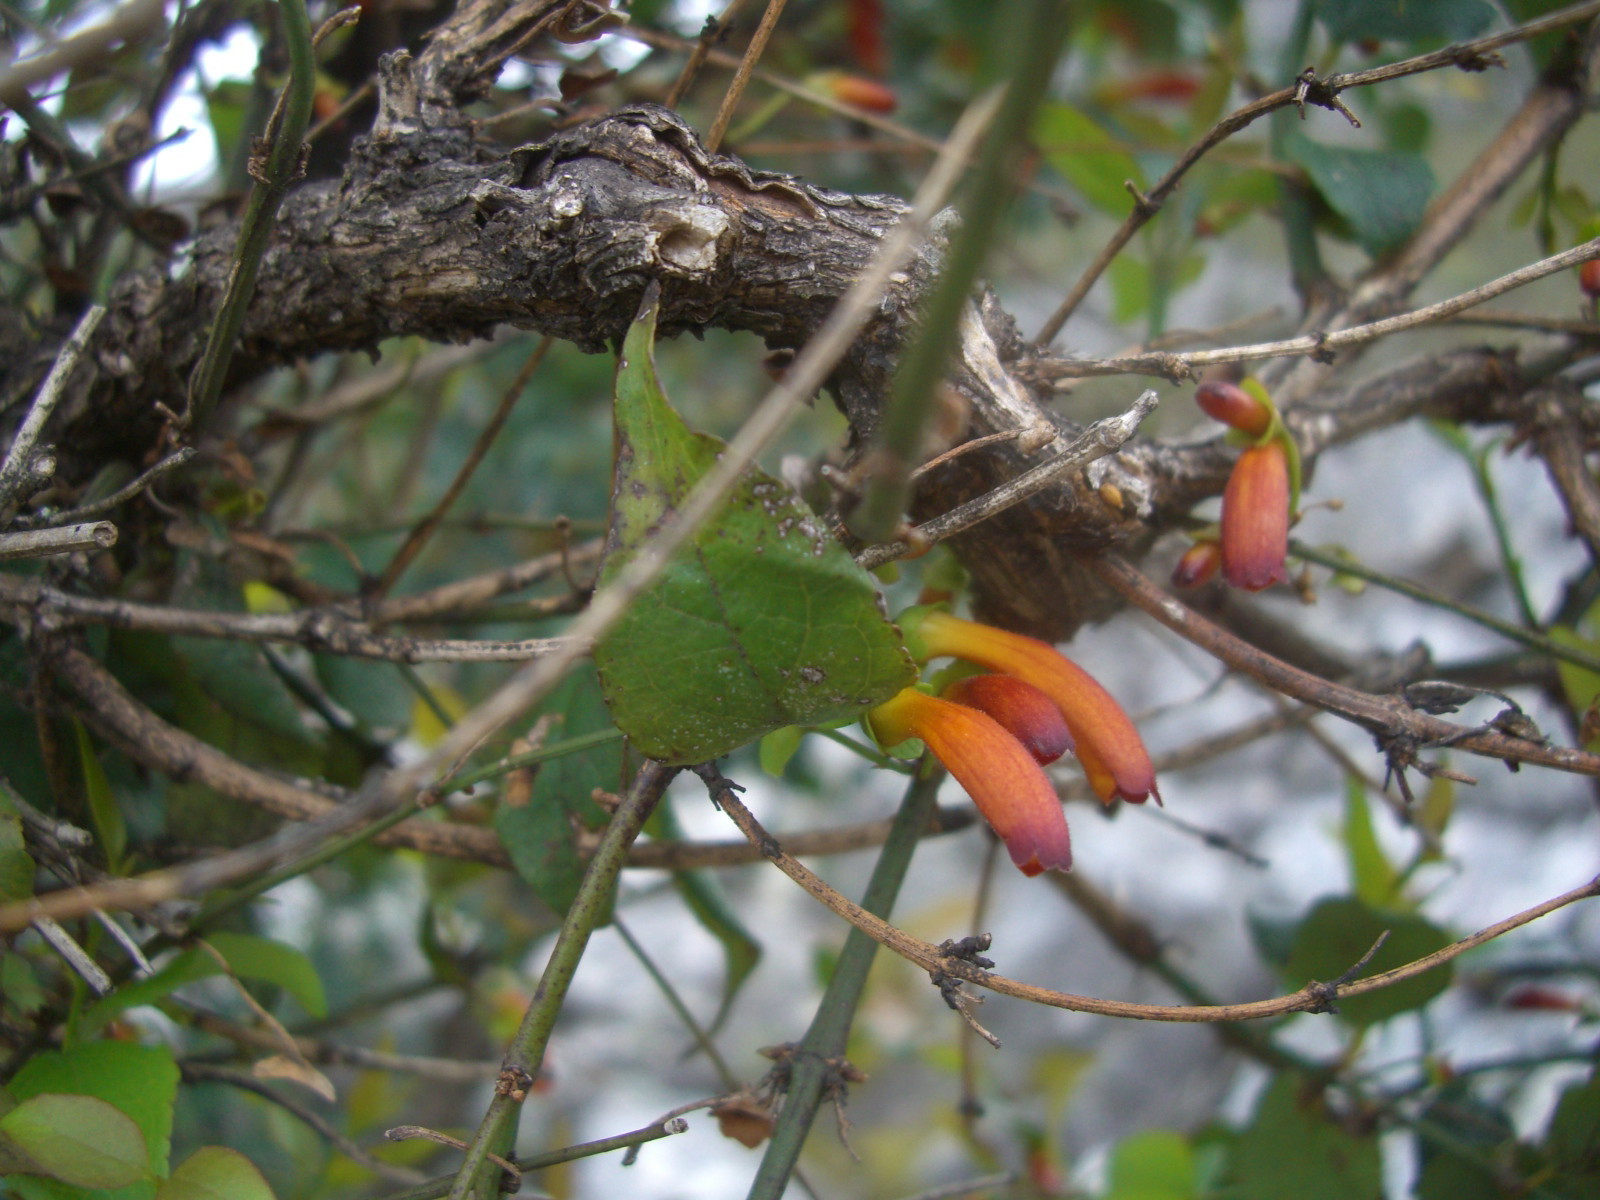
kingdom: Plantae
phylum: Tracheophyta
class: Magnoliopsida
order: Lamiales
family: Stilbaceae
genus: Halleria
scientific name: Halleria lucida
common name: Tree fuschia
